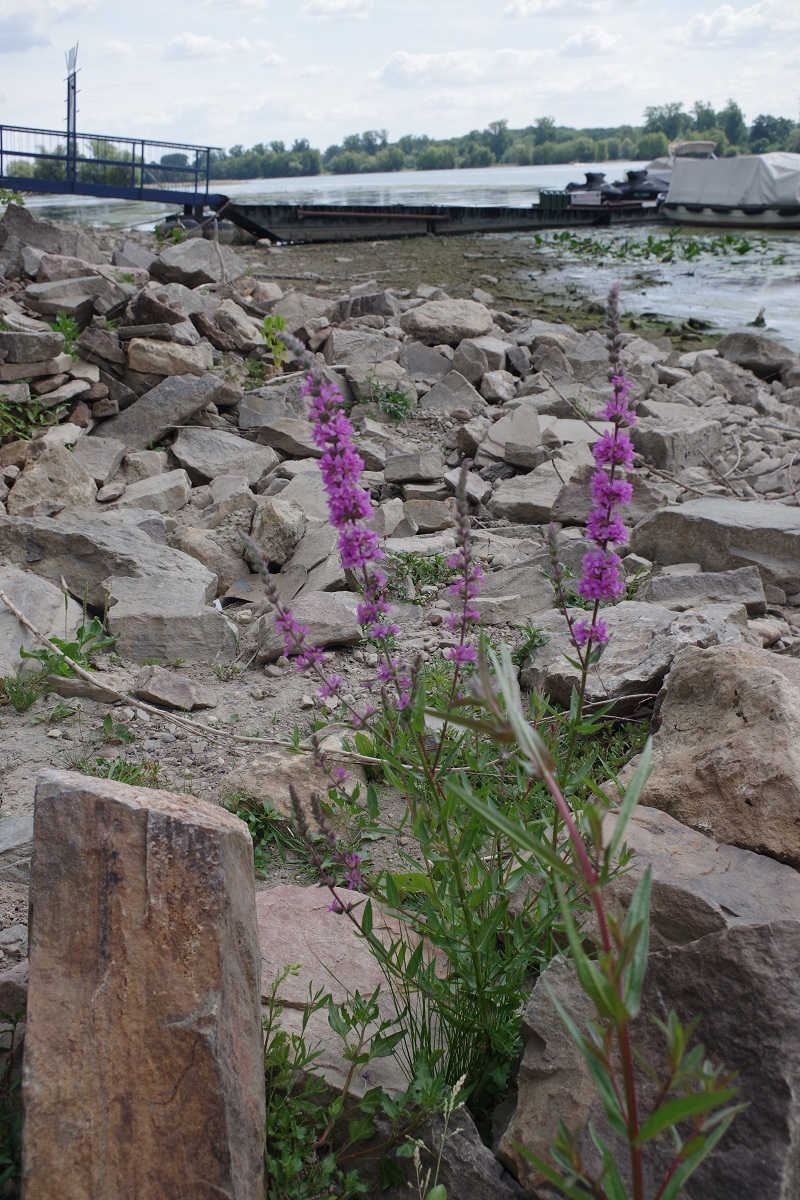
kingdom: Plantae
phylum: Tracheophyta
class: Magnoliopsida
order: Myrtales
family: Lythraceae
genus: Lythrum
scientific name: Lythrum salicaria
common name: Purple loosestrife
